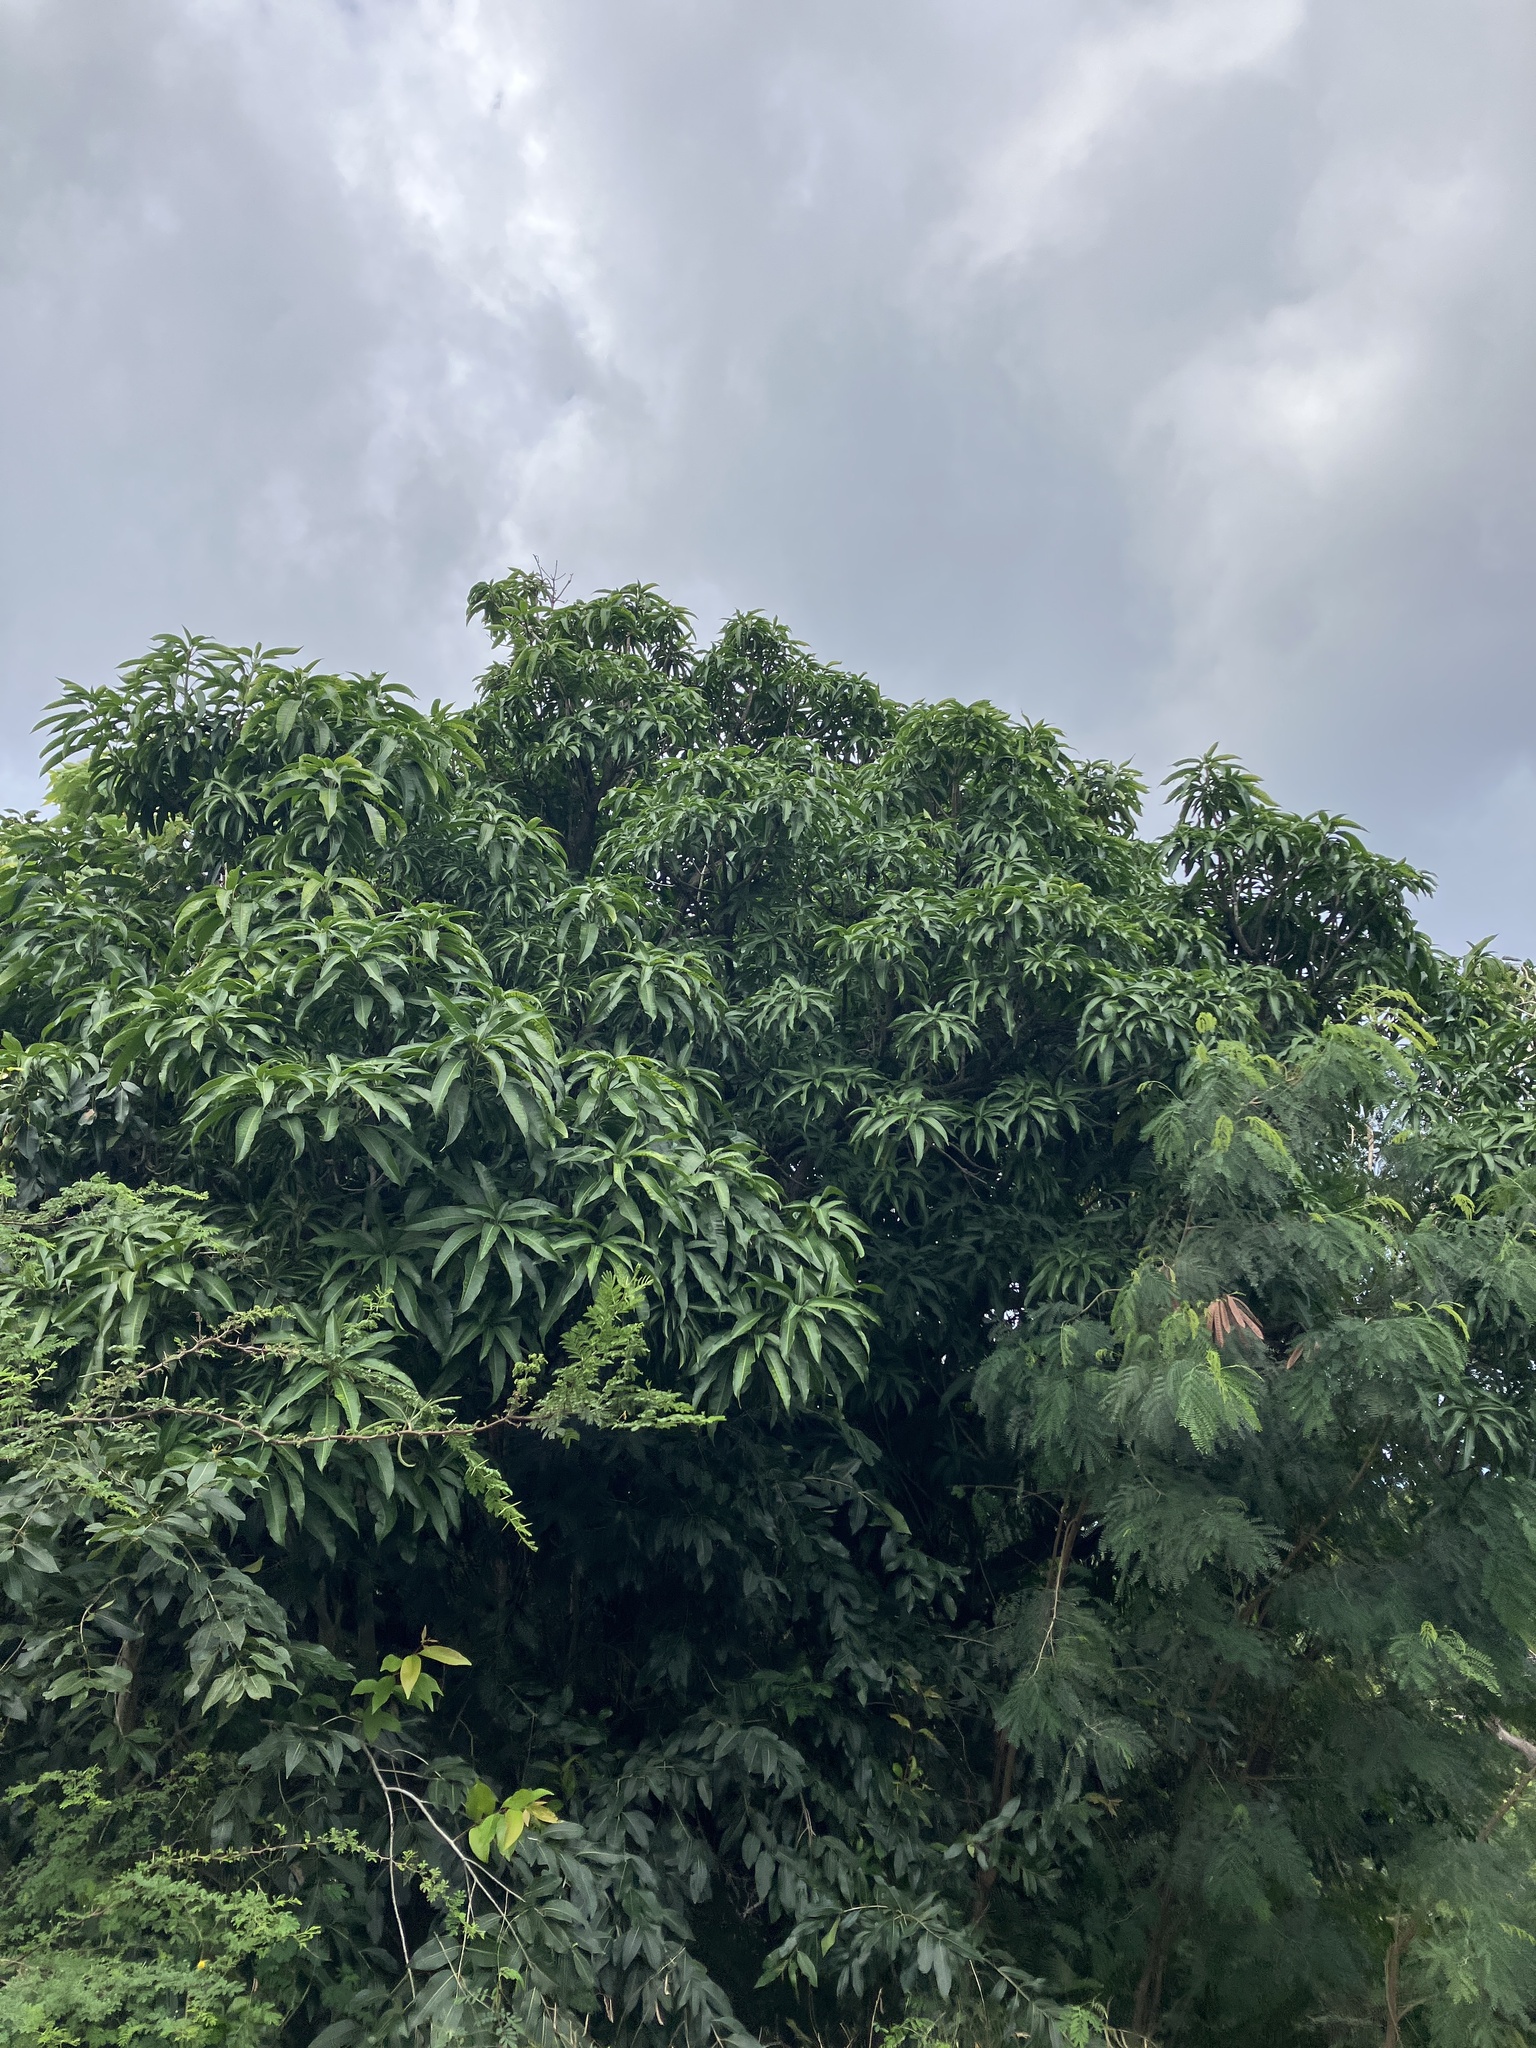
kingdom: Plantae
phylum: Tracheophyta
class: Magnoliopsida
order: Sapindales
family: Anacardiaceae
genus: Mangifera
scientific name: Mangifera indica
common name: Mango
